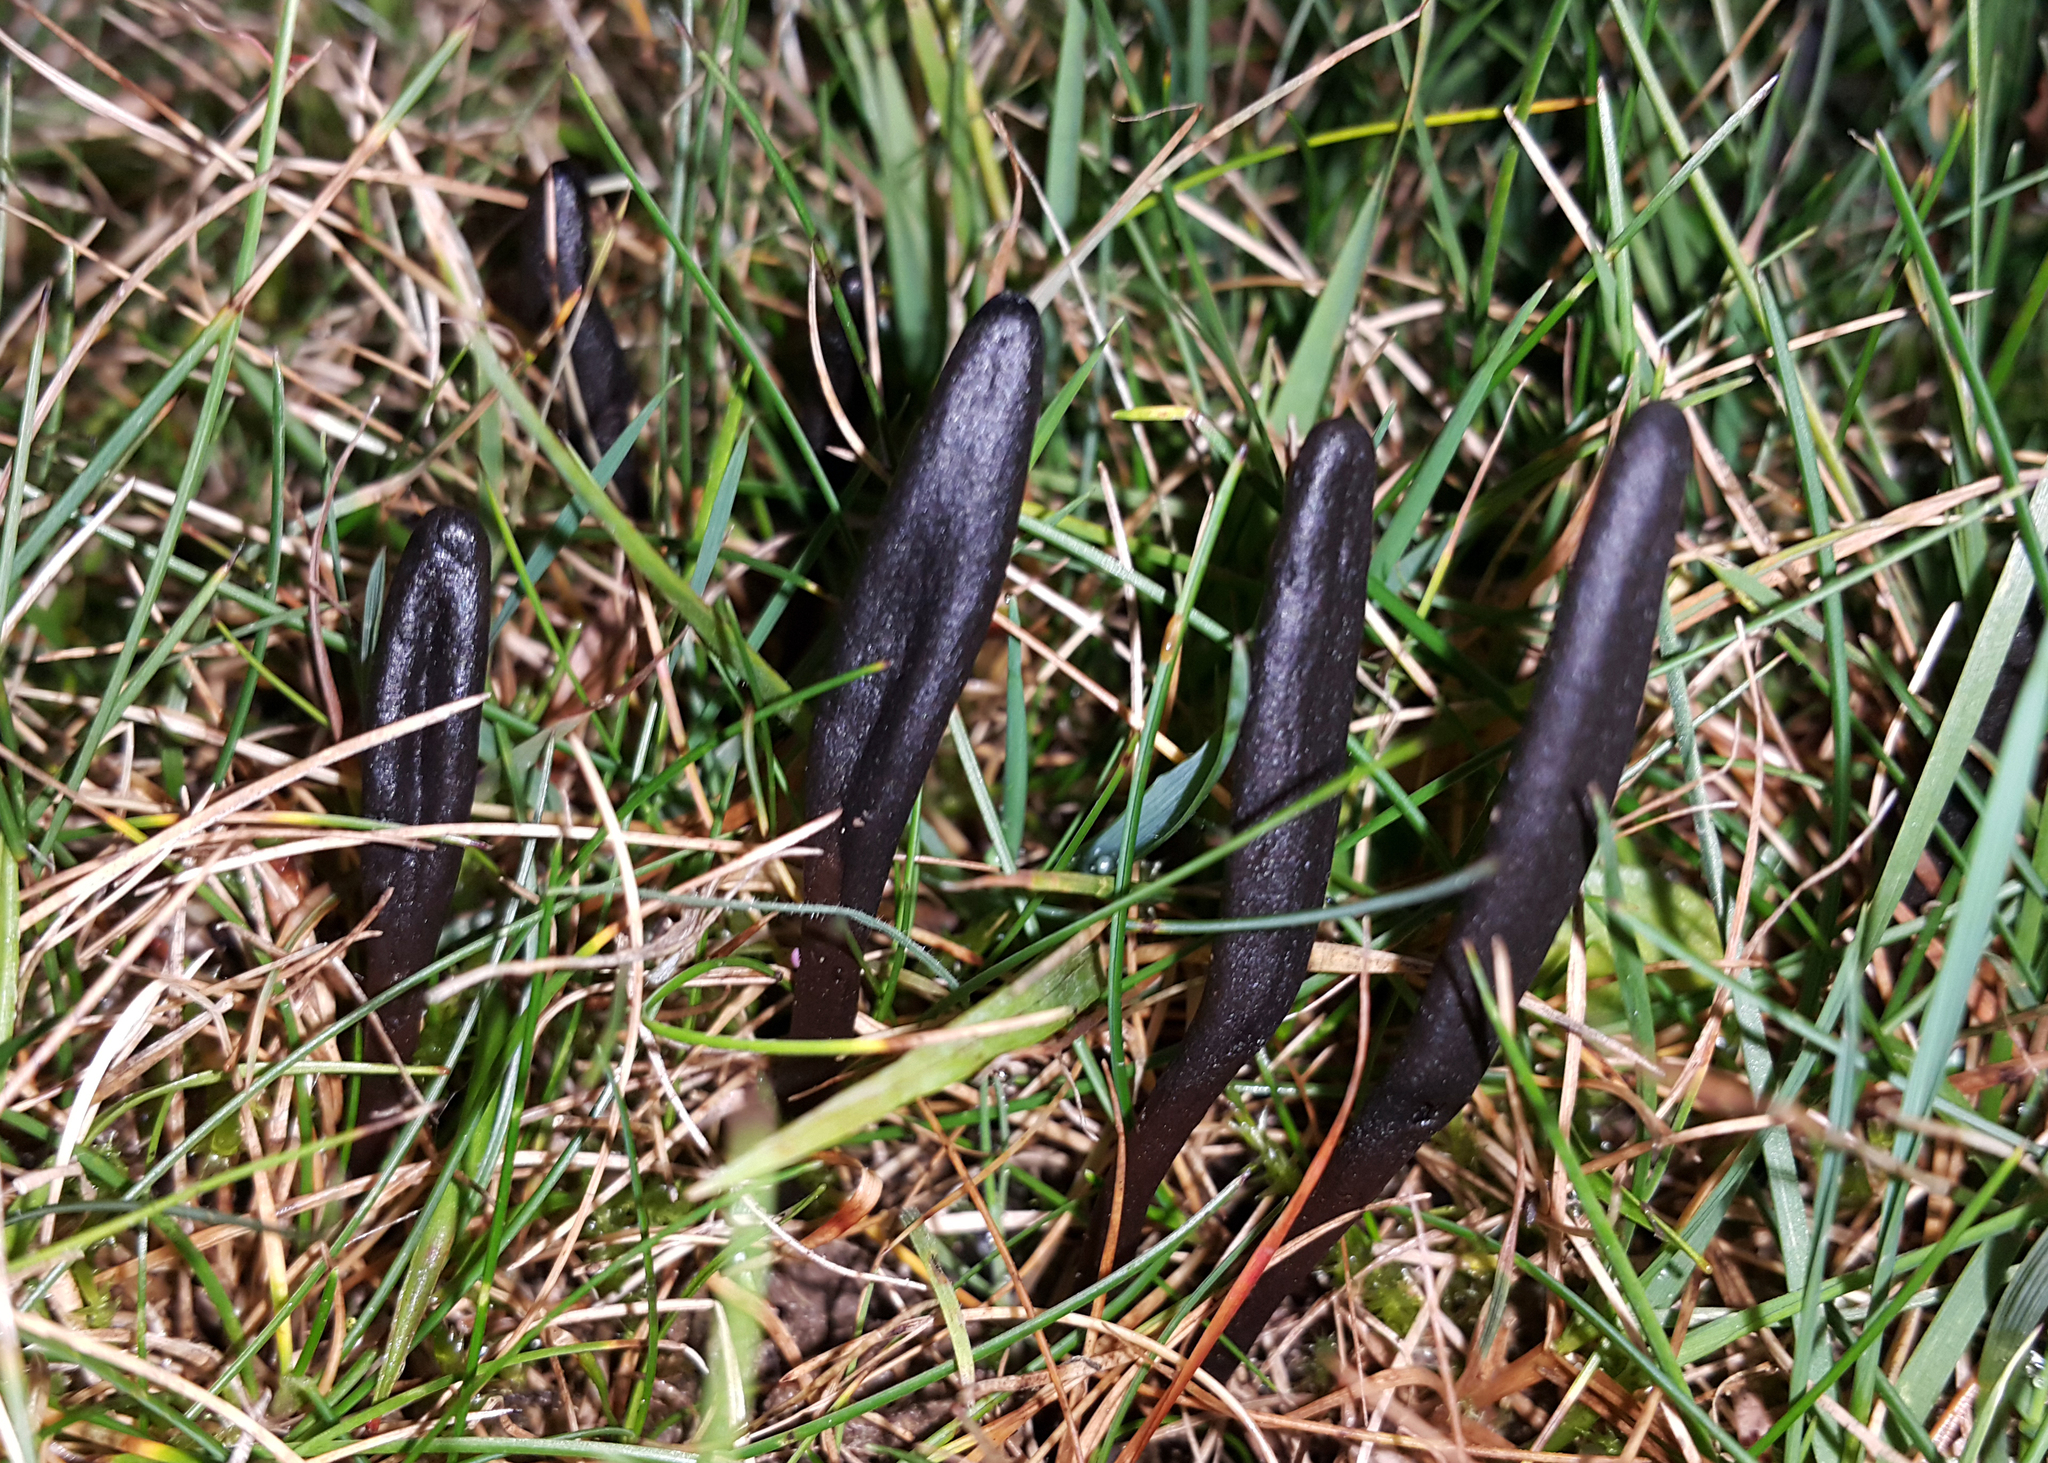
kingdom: Fungi
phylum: Ascomycota
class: Geoglossomycetes
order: Geoglossales
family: Geoglossaceae
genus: Geoglossum
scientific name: Geoglossum
